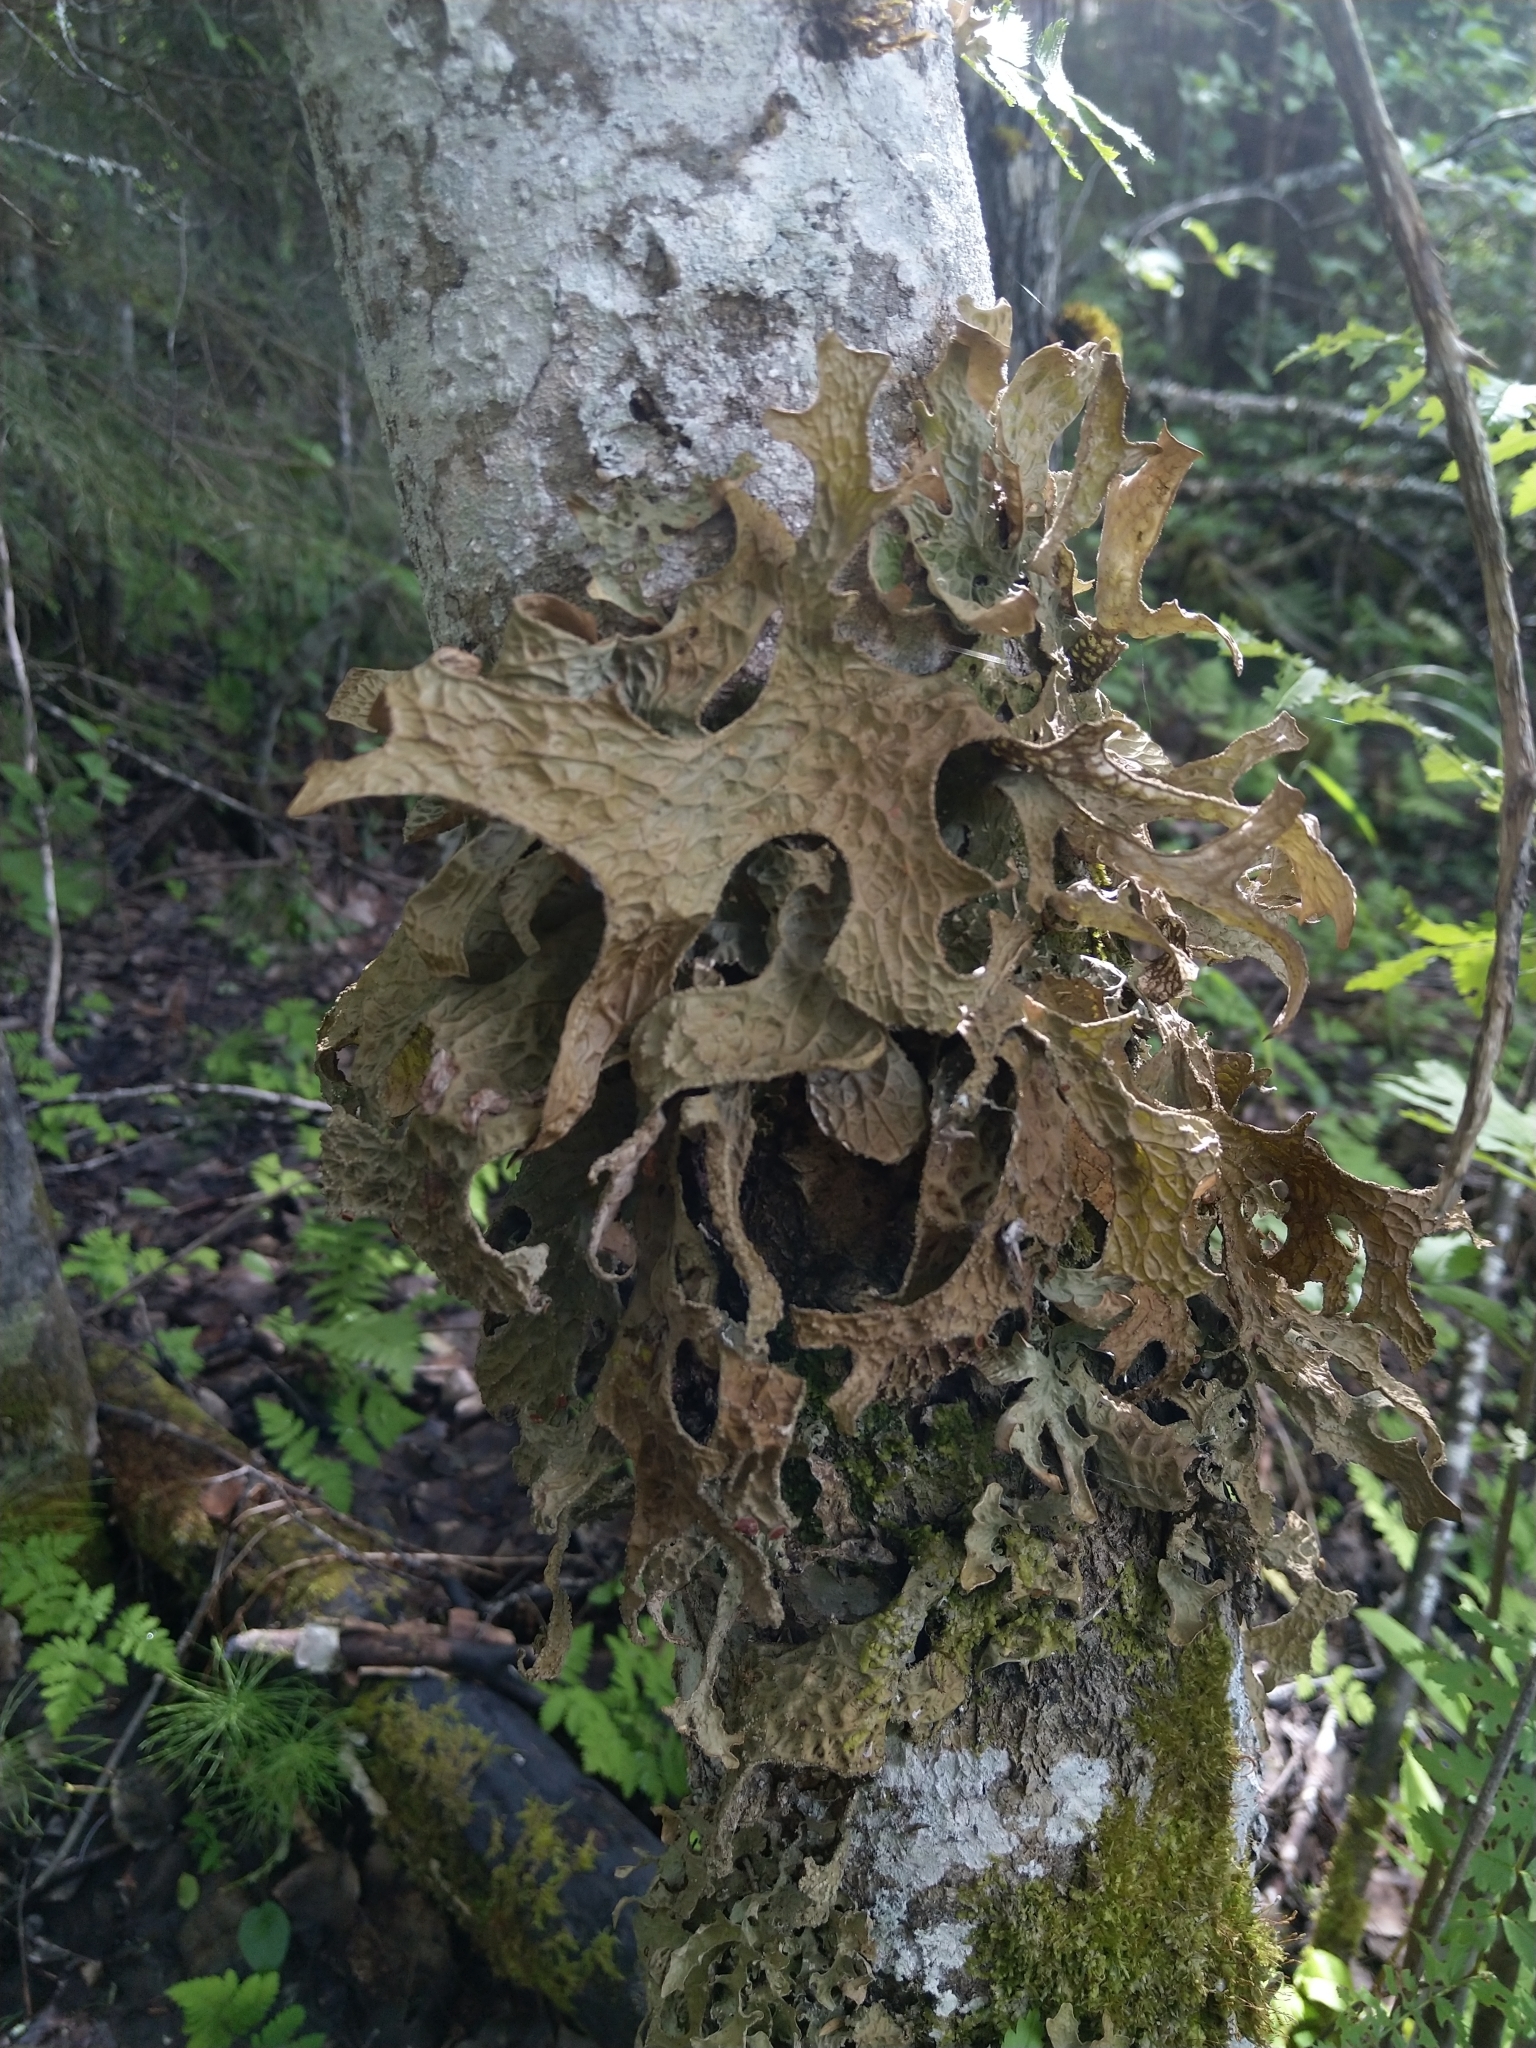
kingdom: Fungi
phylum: Ascomycota
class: Lecanoromycetes
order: Peltigerales
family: Lobariaceae
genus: Lobaria
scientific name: Lobaria pulmonaria
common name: Lungwort
